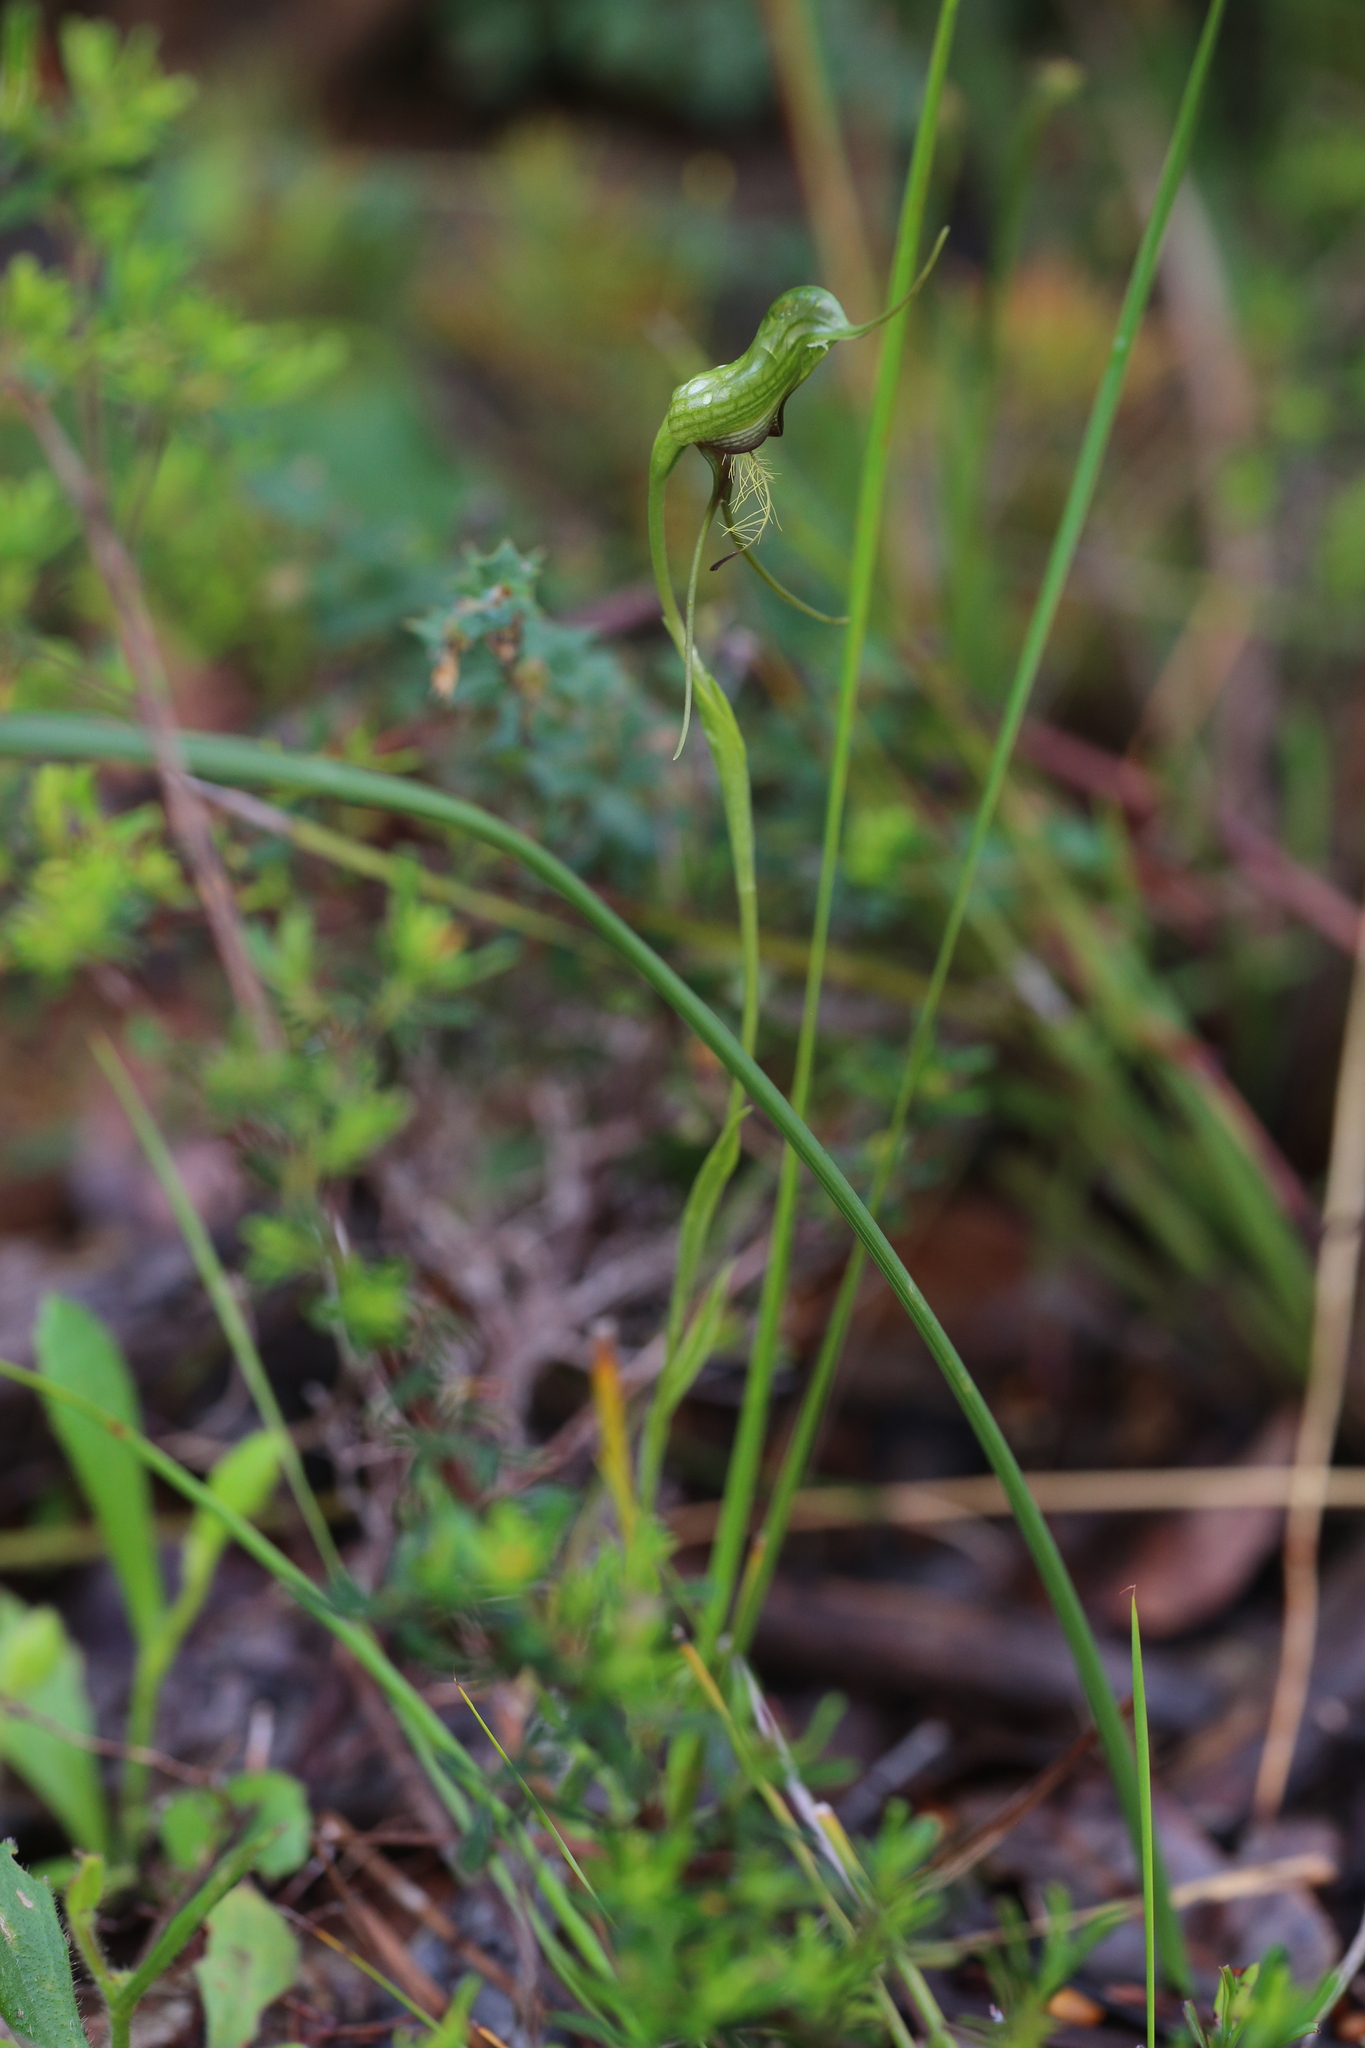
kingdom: Plantae
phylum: Tracheophyta
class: Liliopsida
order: Asparagales
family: Orchidaceae
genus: Pterostylis
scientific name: Pterostylis barbata
